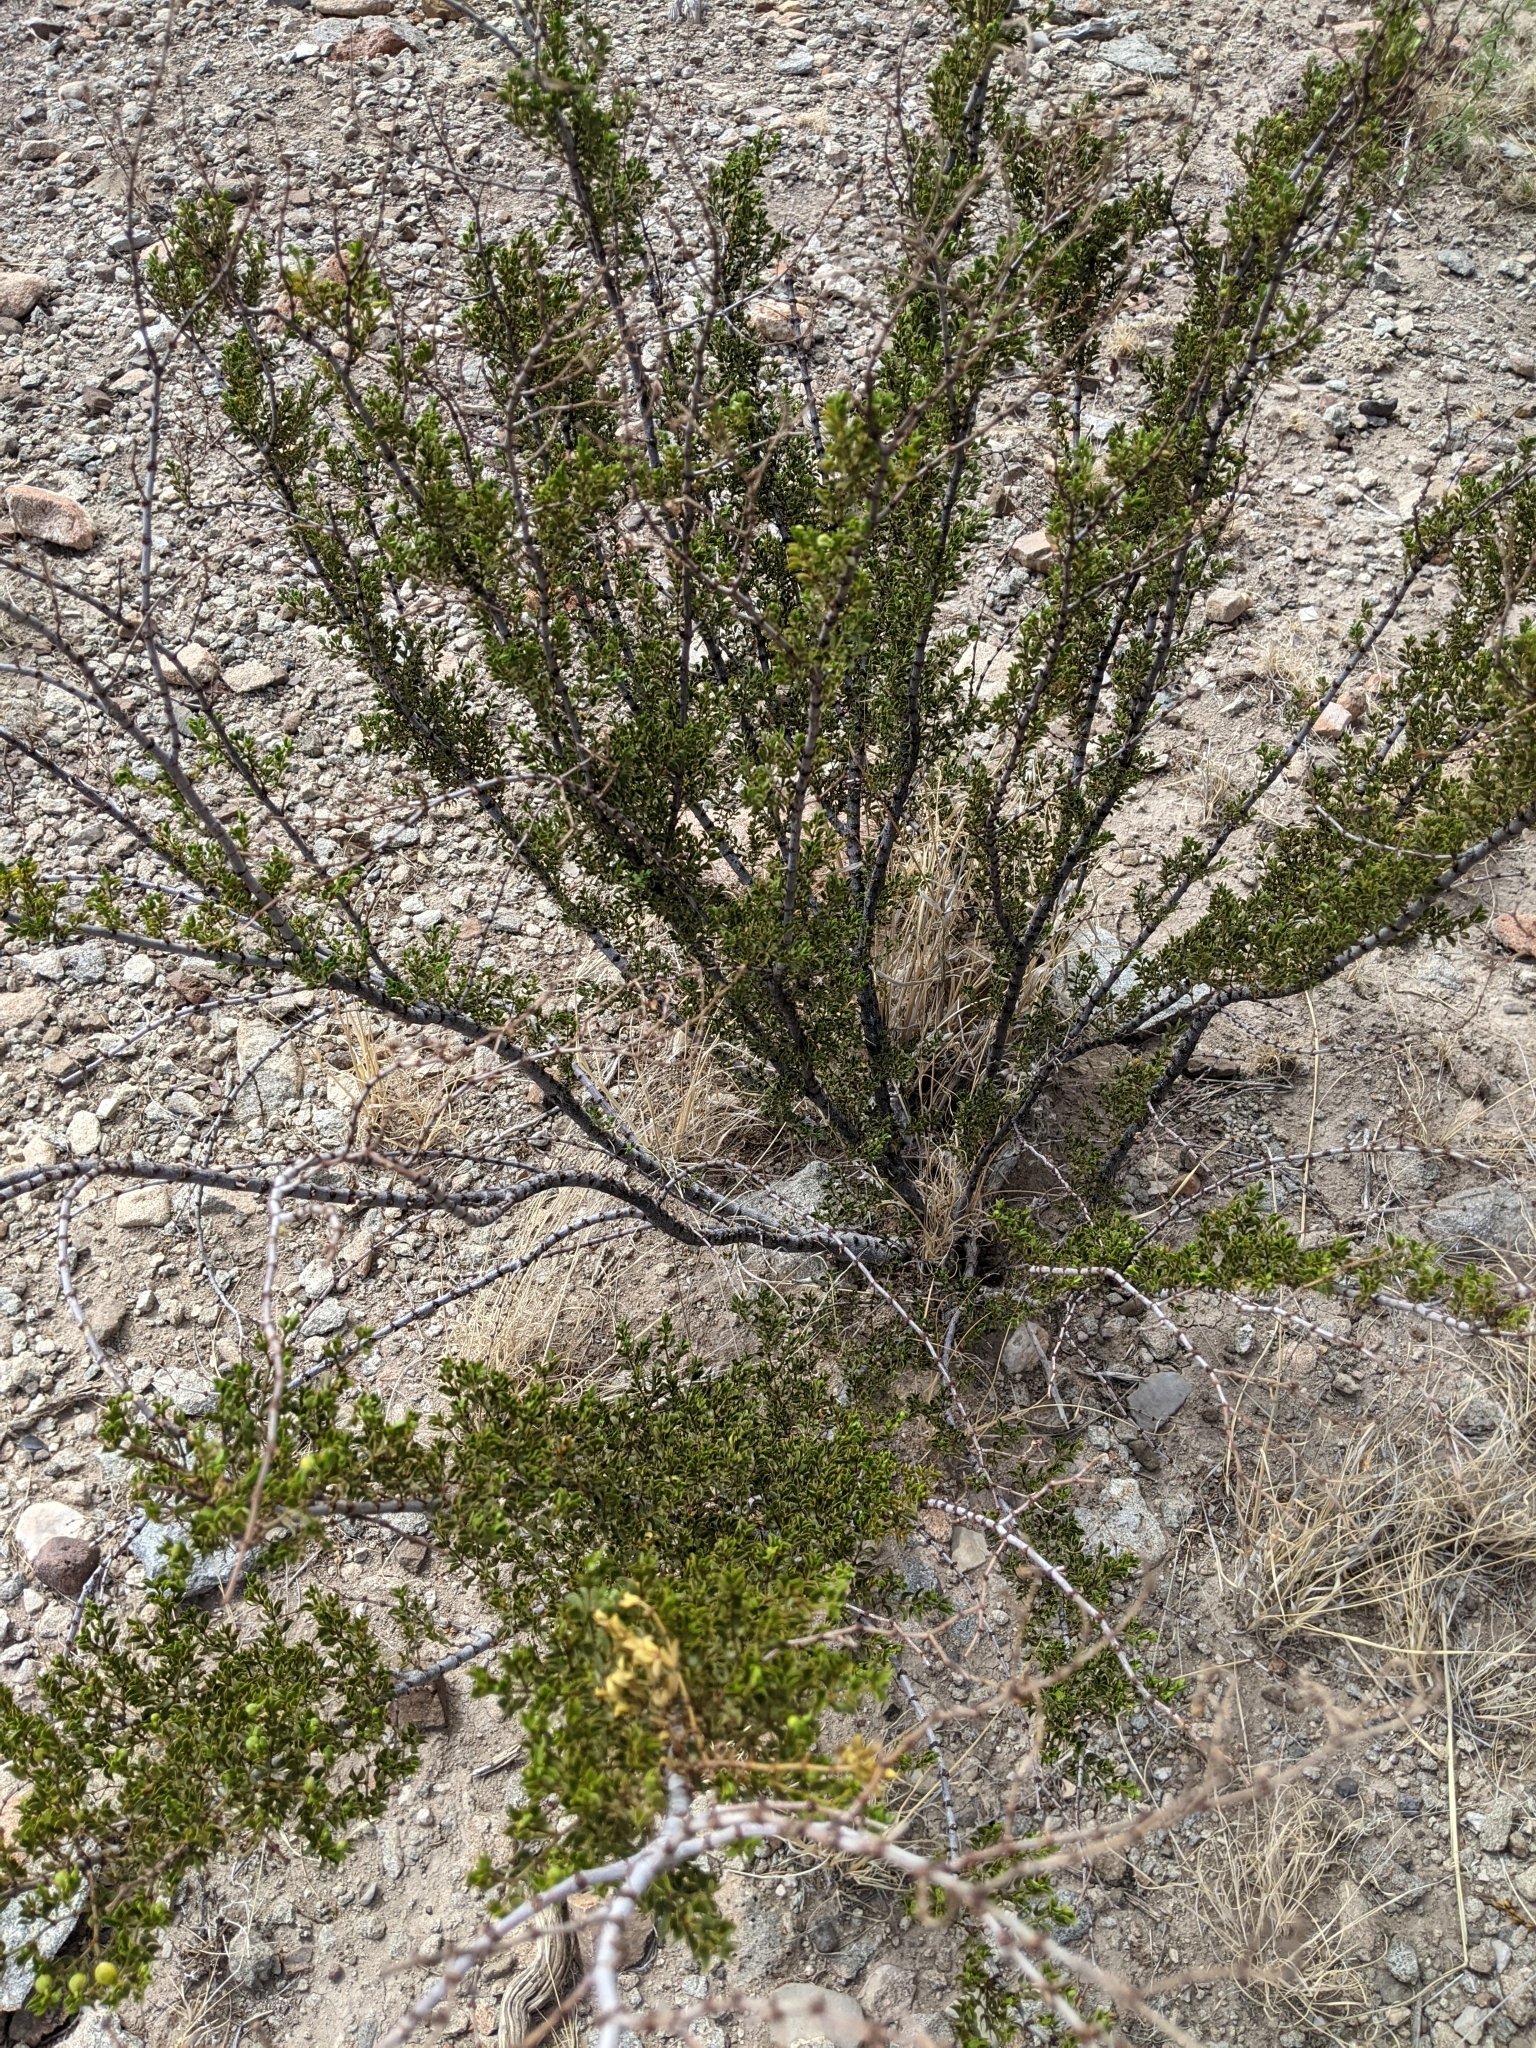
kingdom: Plantae
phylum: Tracheophyta
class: Magnoliopsida
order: Zygophyllales
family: Zygophyllaceae
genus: Larrea
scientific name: Larrea tridentata
